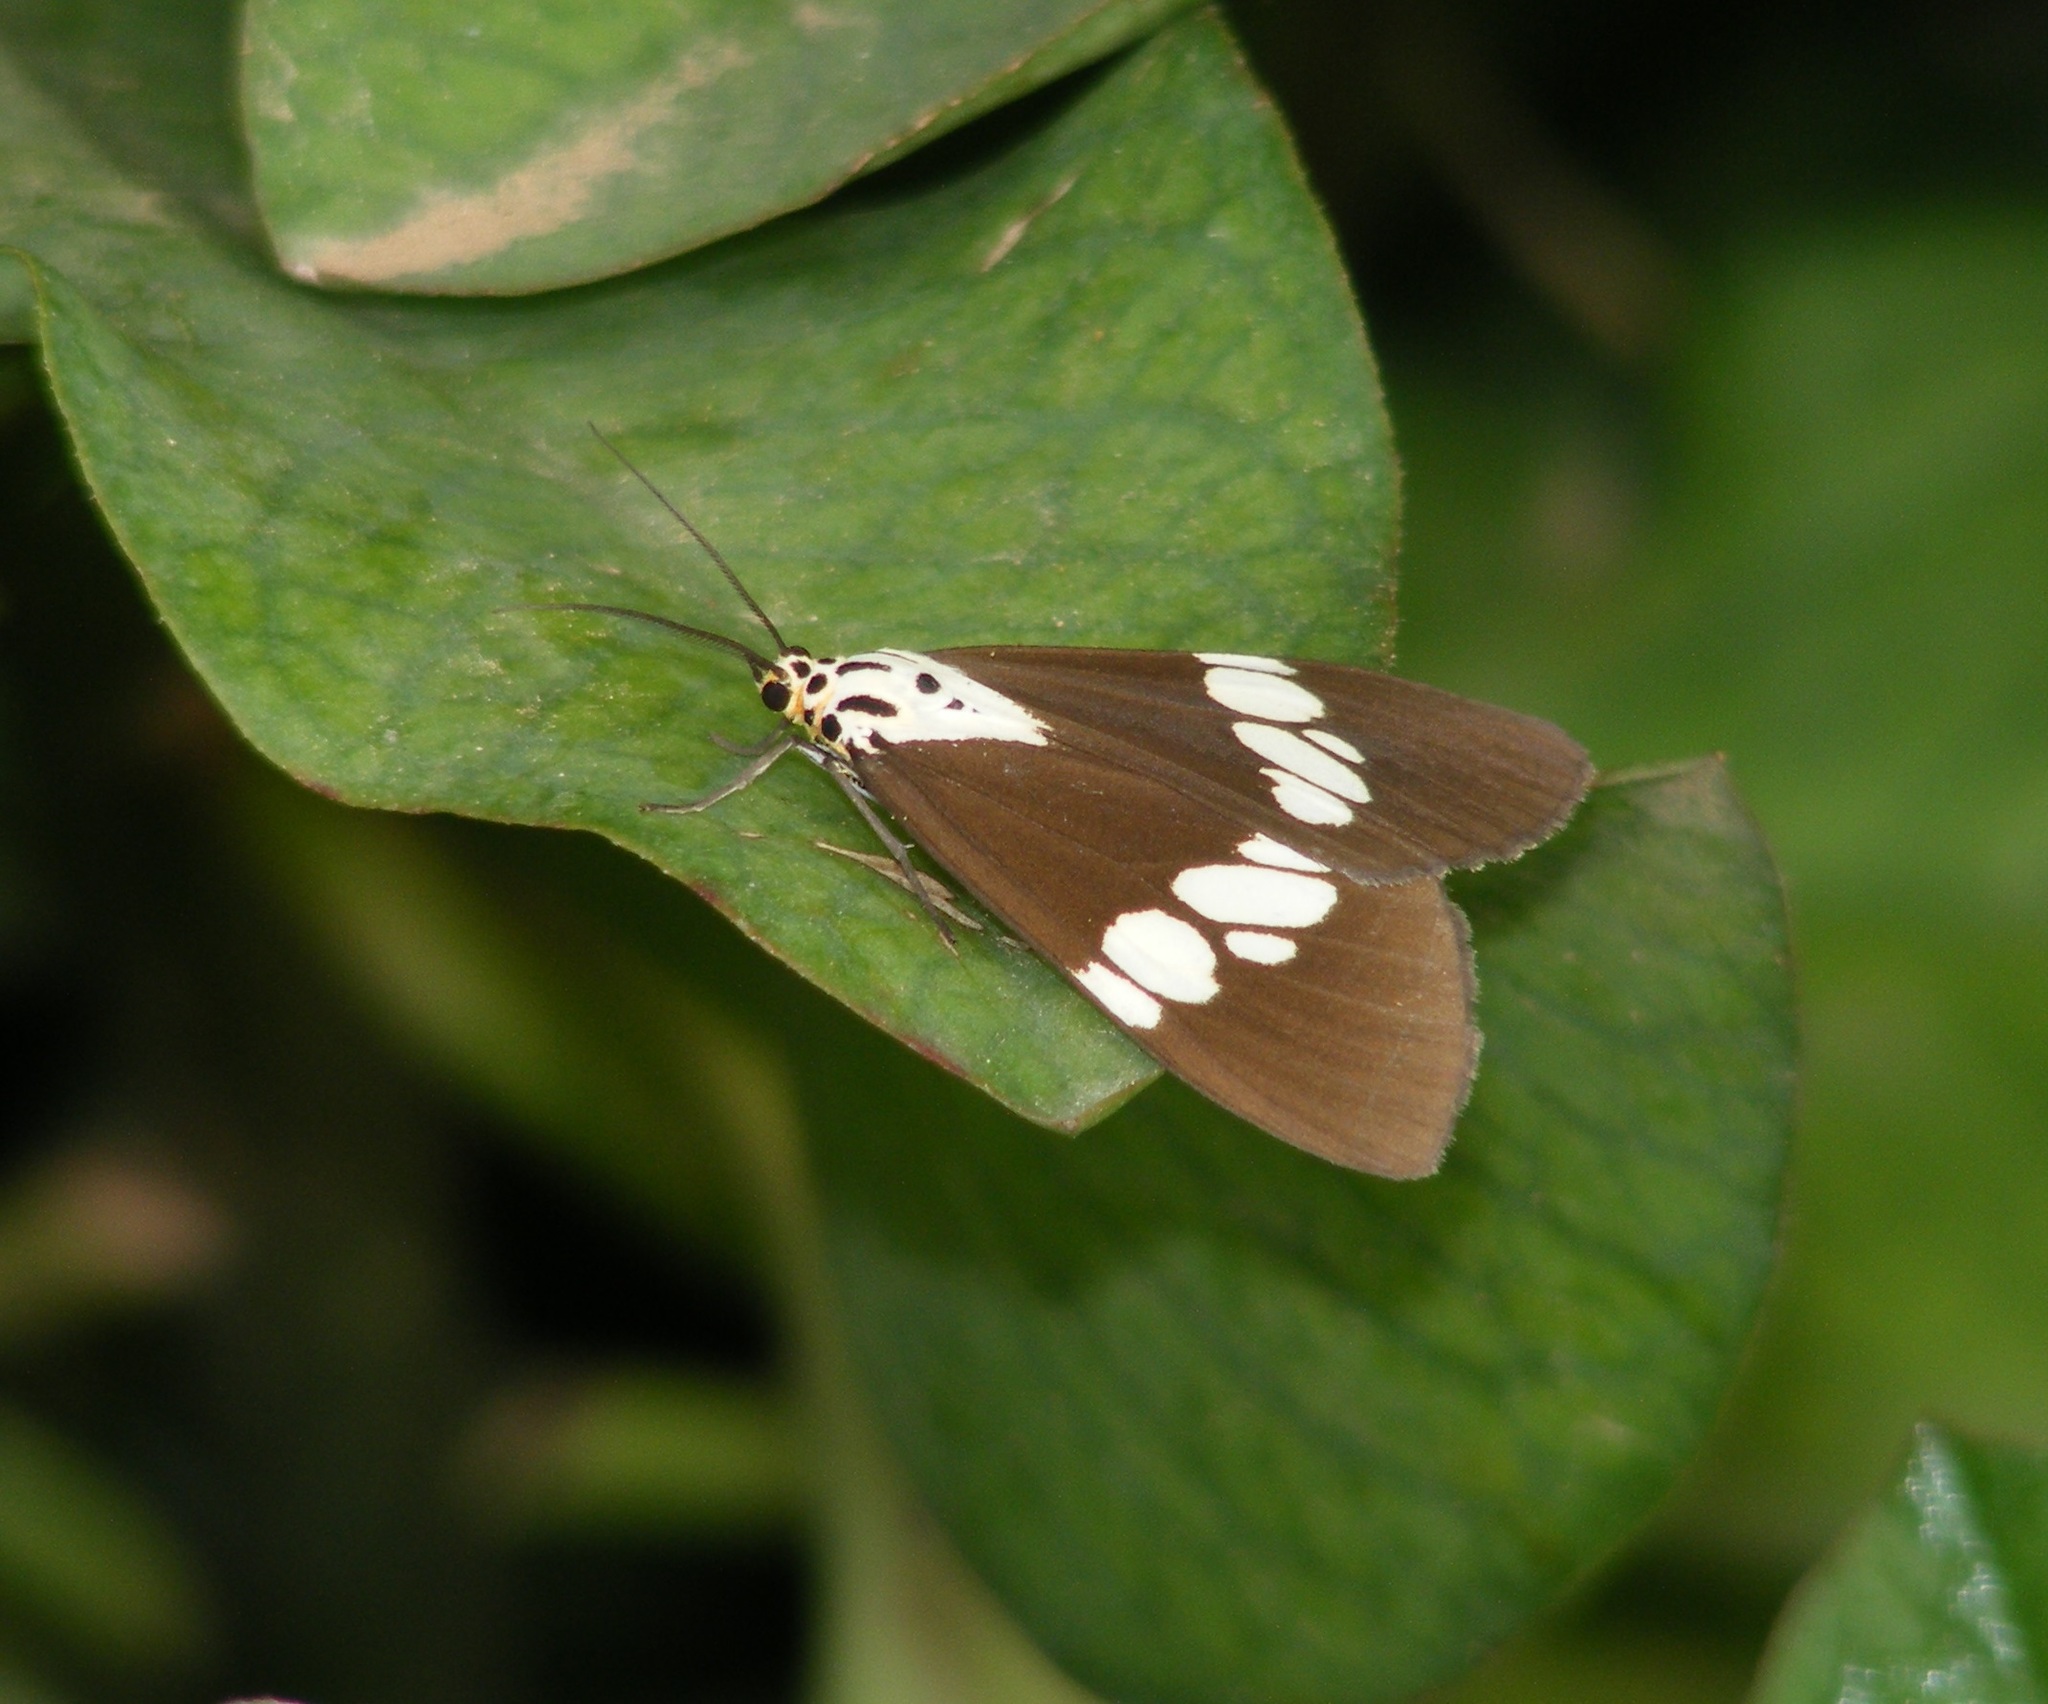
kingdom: Animalia
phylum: Arthropoda
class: Insecta
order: Lepidoptera
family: Erebidae
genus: Nyctemera
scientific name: Nyctemera lacticinia
